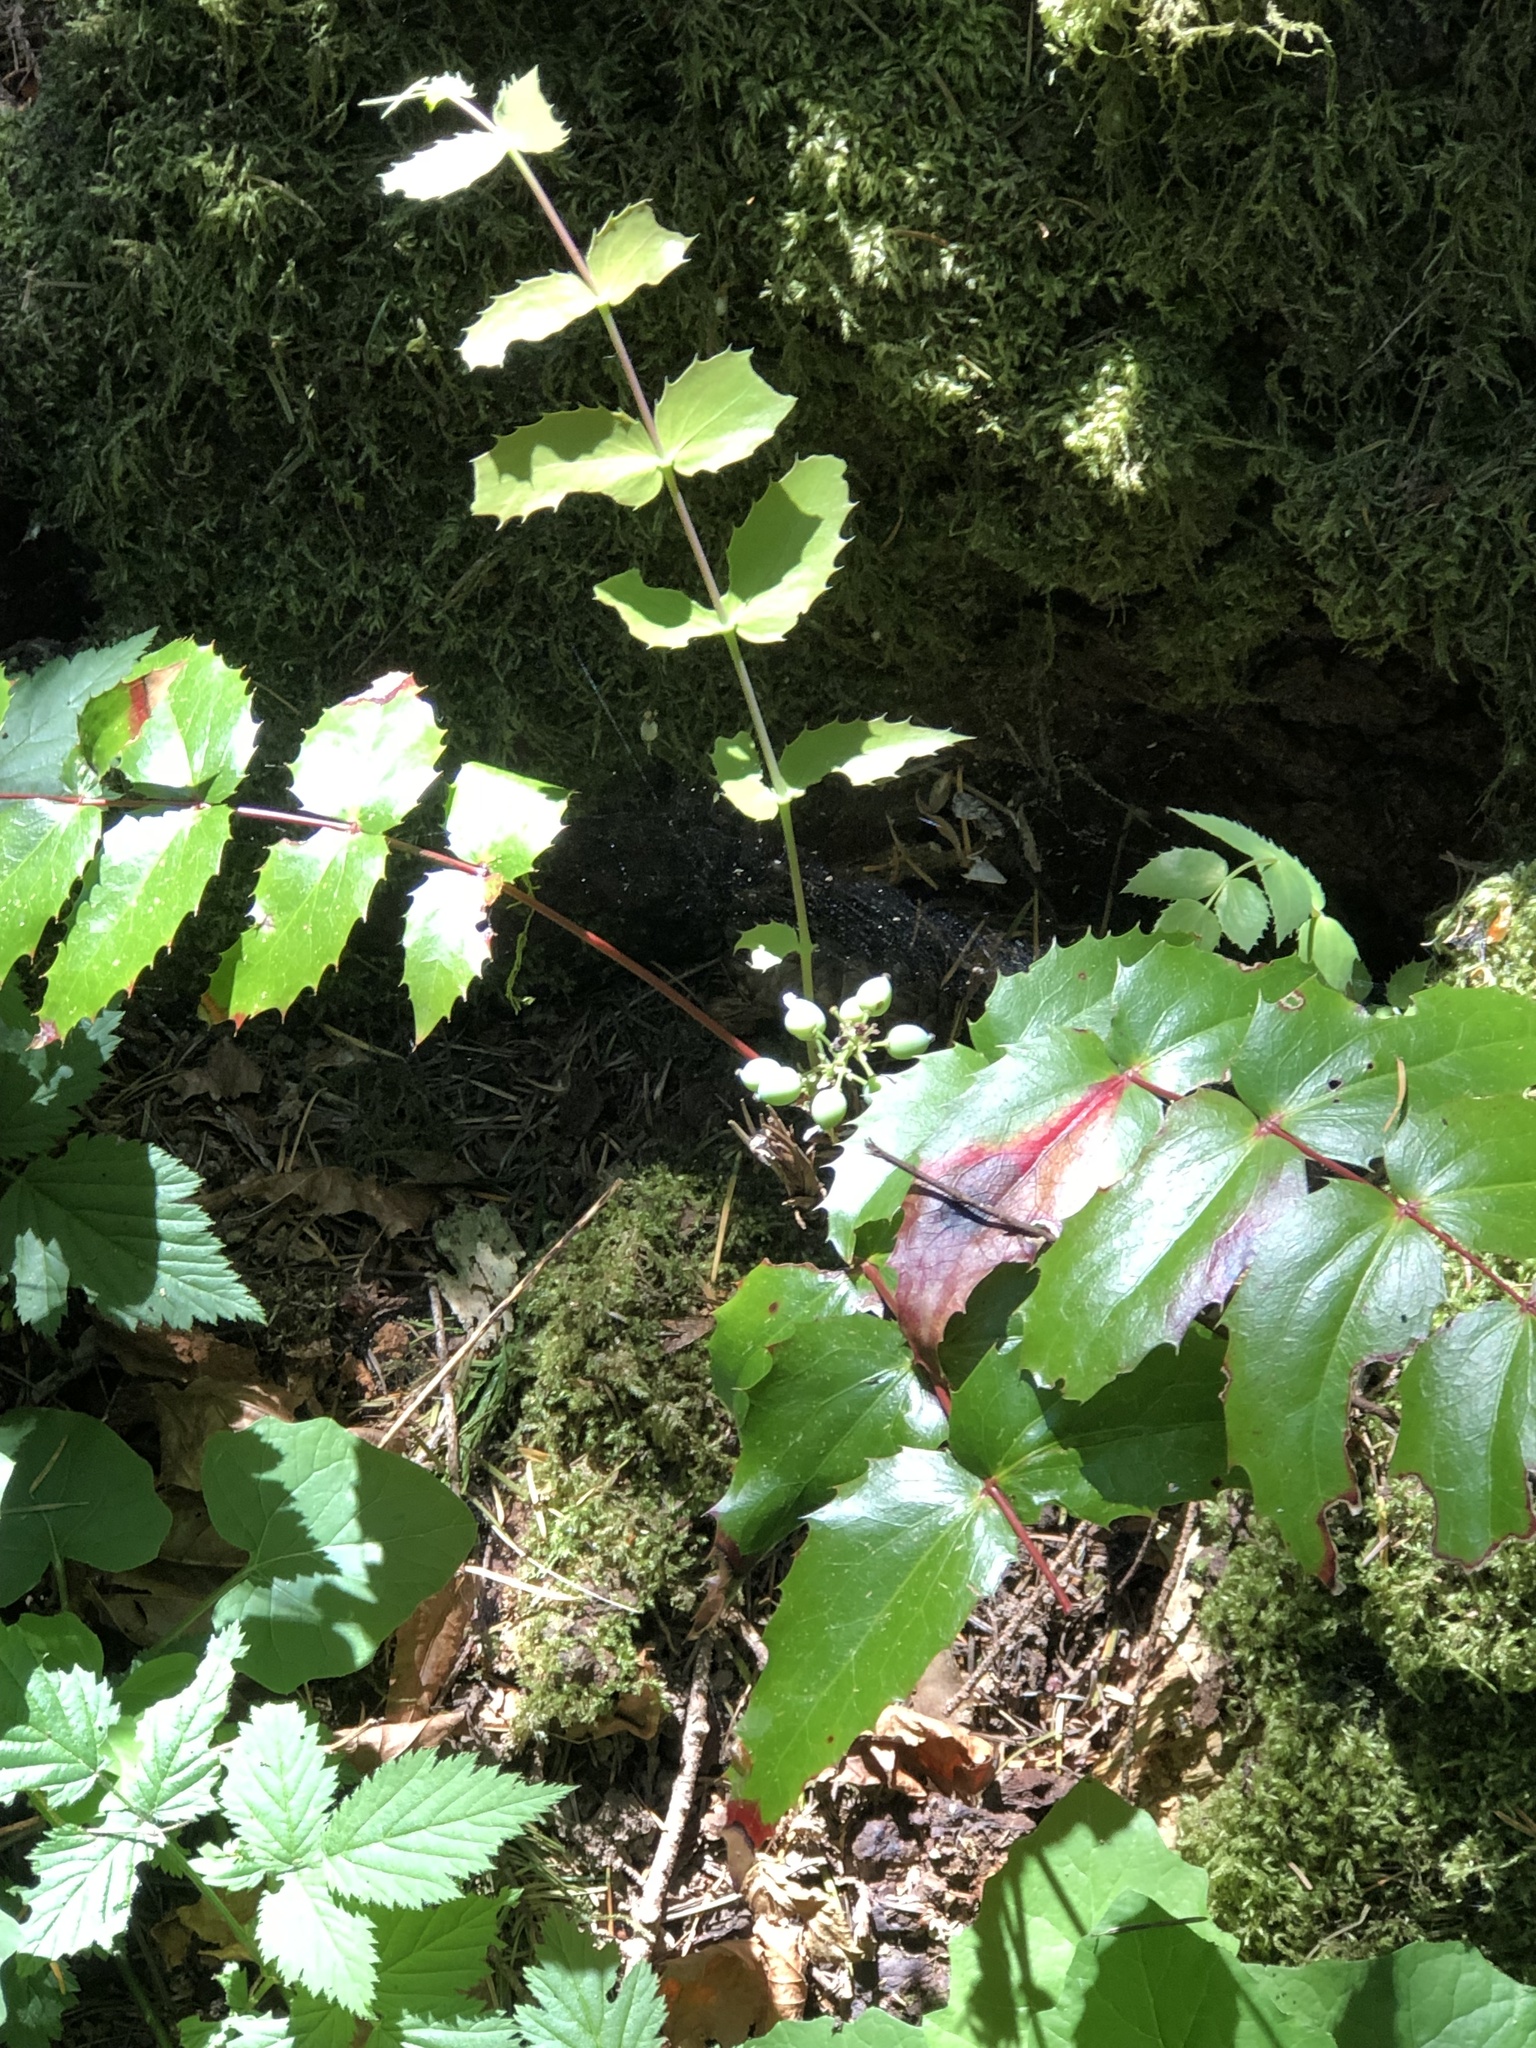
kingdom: Plantae
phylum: Tracheophyta
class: Magnoliopsida
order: Ranunculales
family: Berberidaceae
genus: Mahonia
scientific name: Mahonia nervosa
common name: Cascade oregon-grape
